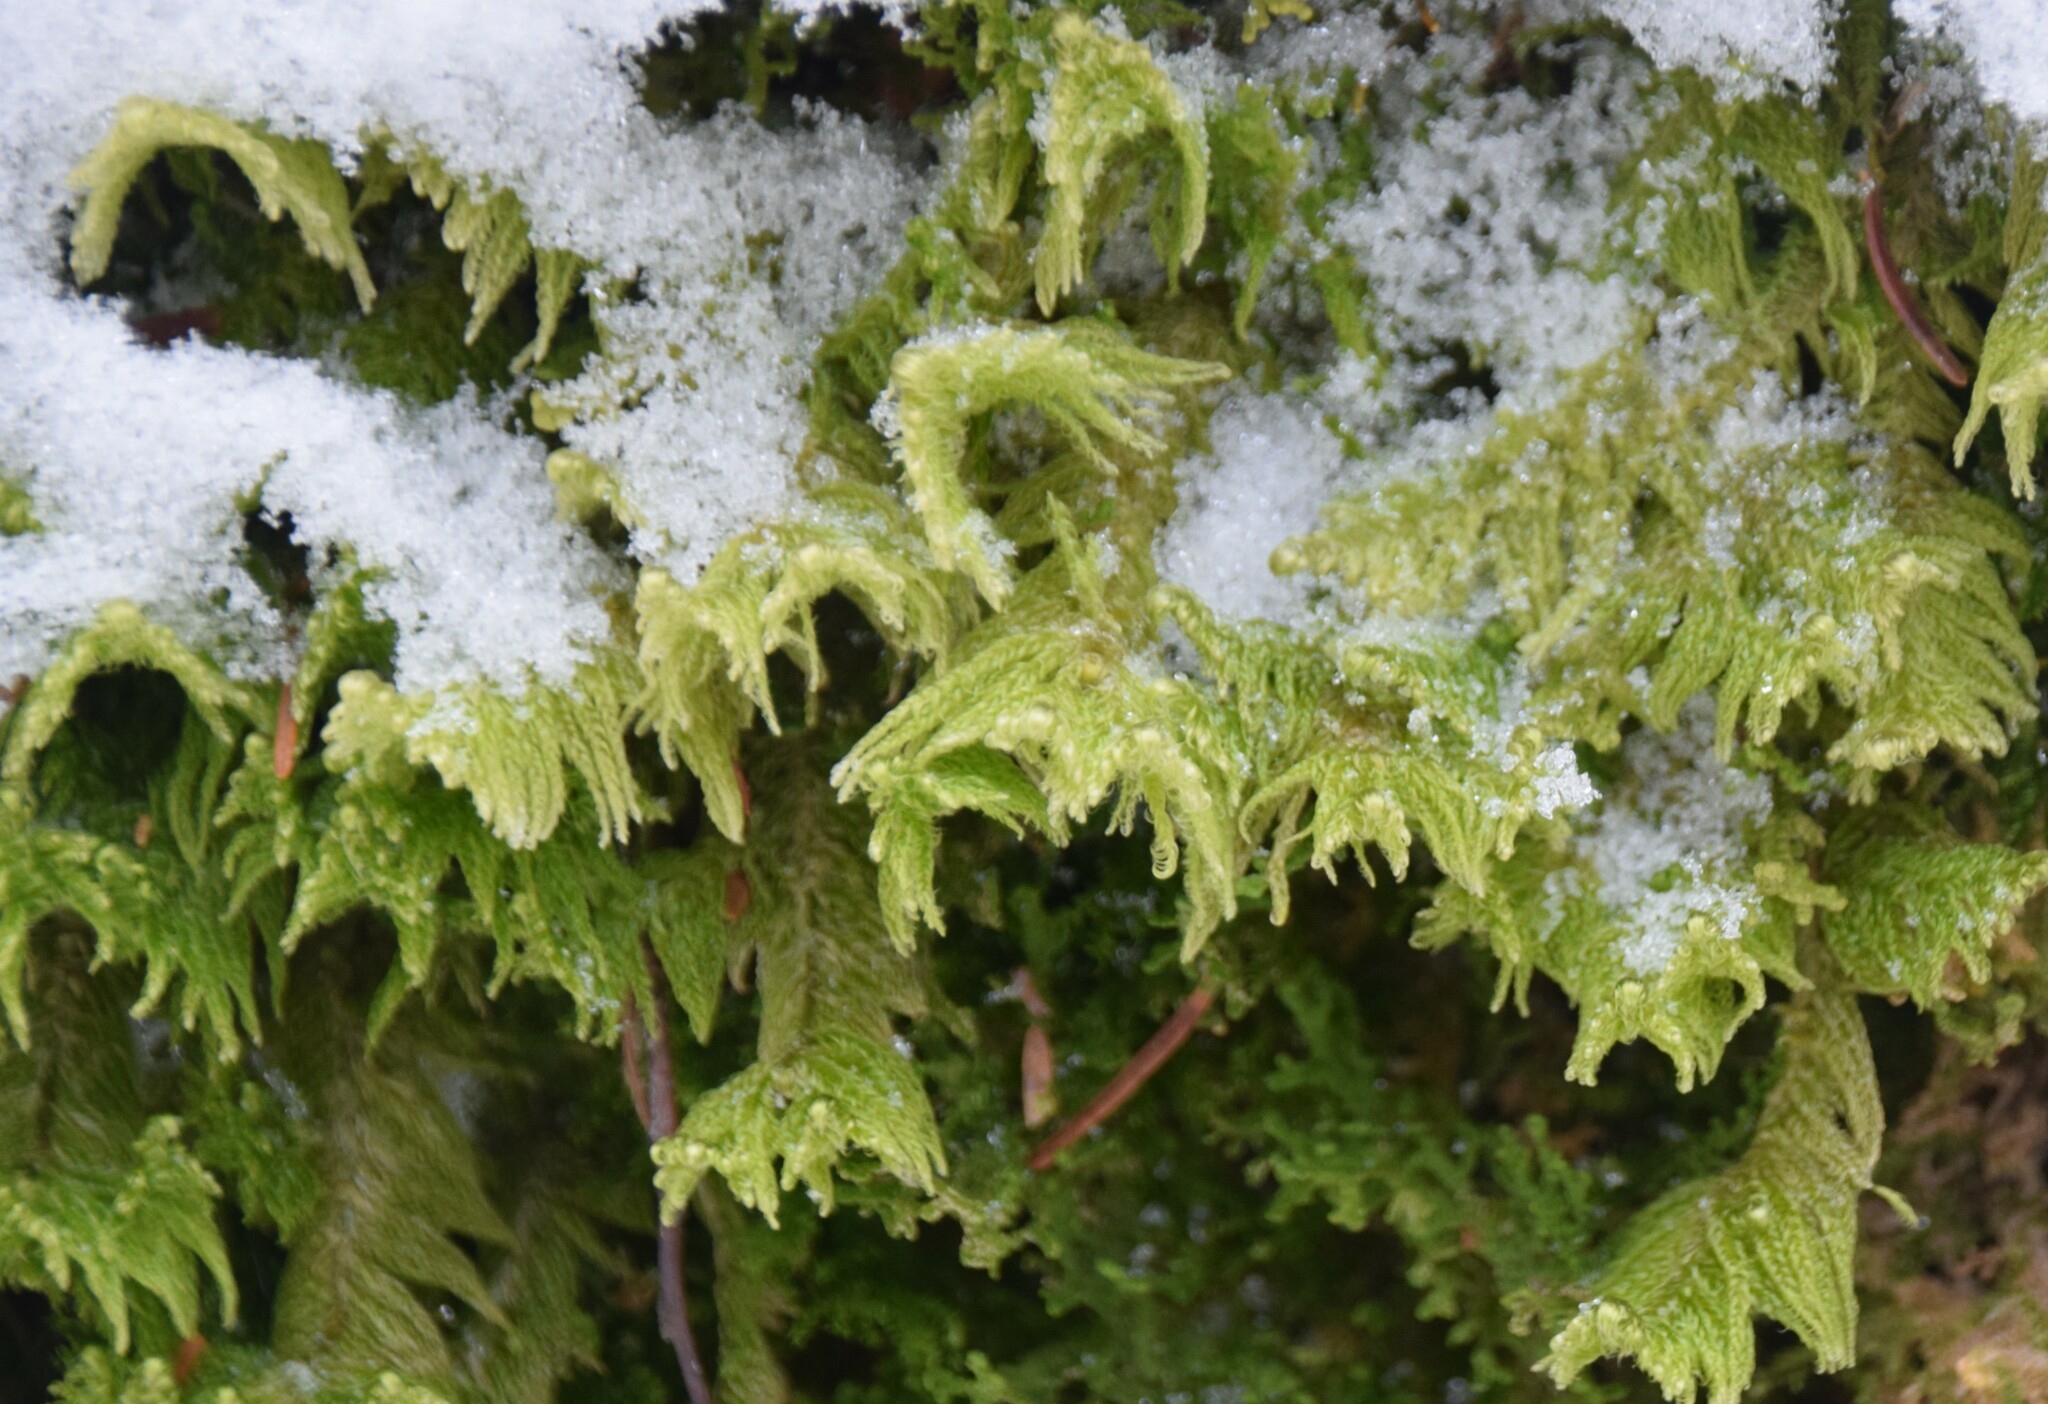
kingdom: Plantae
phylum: Bryophyta
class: Bryopsida
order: Hypnales
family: Pylaisiaceae
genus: Ptilium
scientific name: Ptilium crista-castrensis
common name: Knight's plume moss
